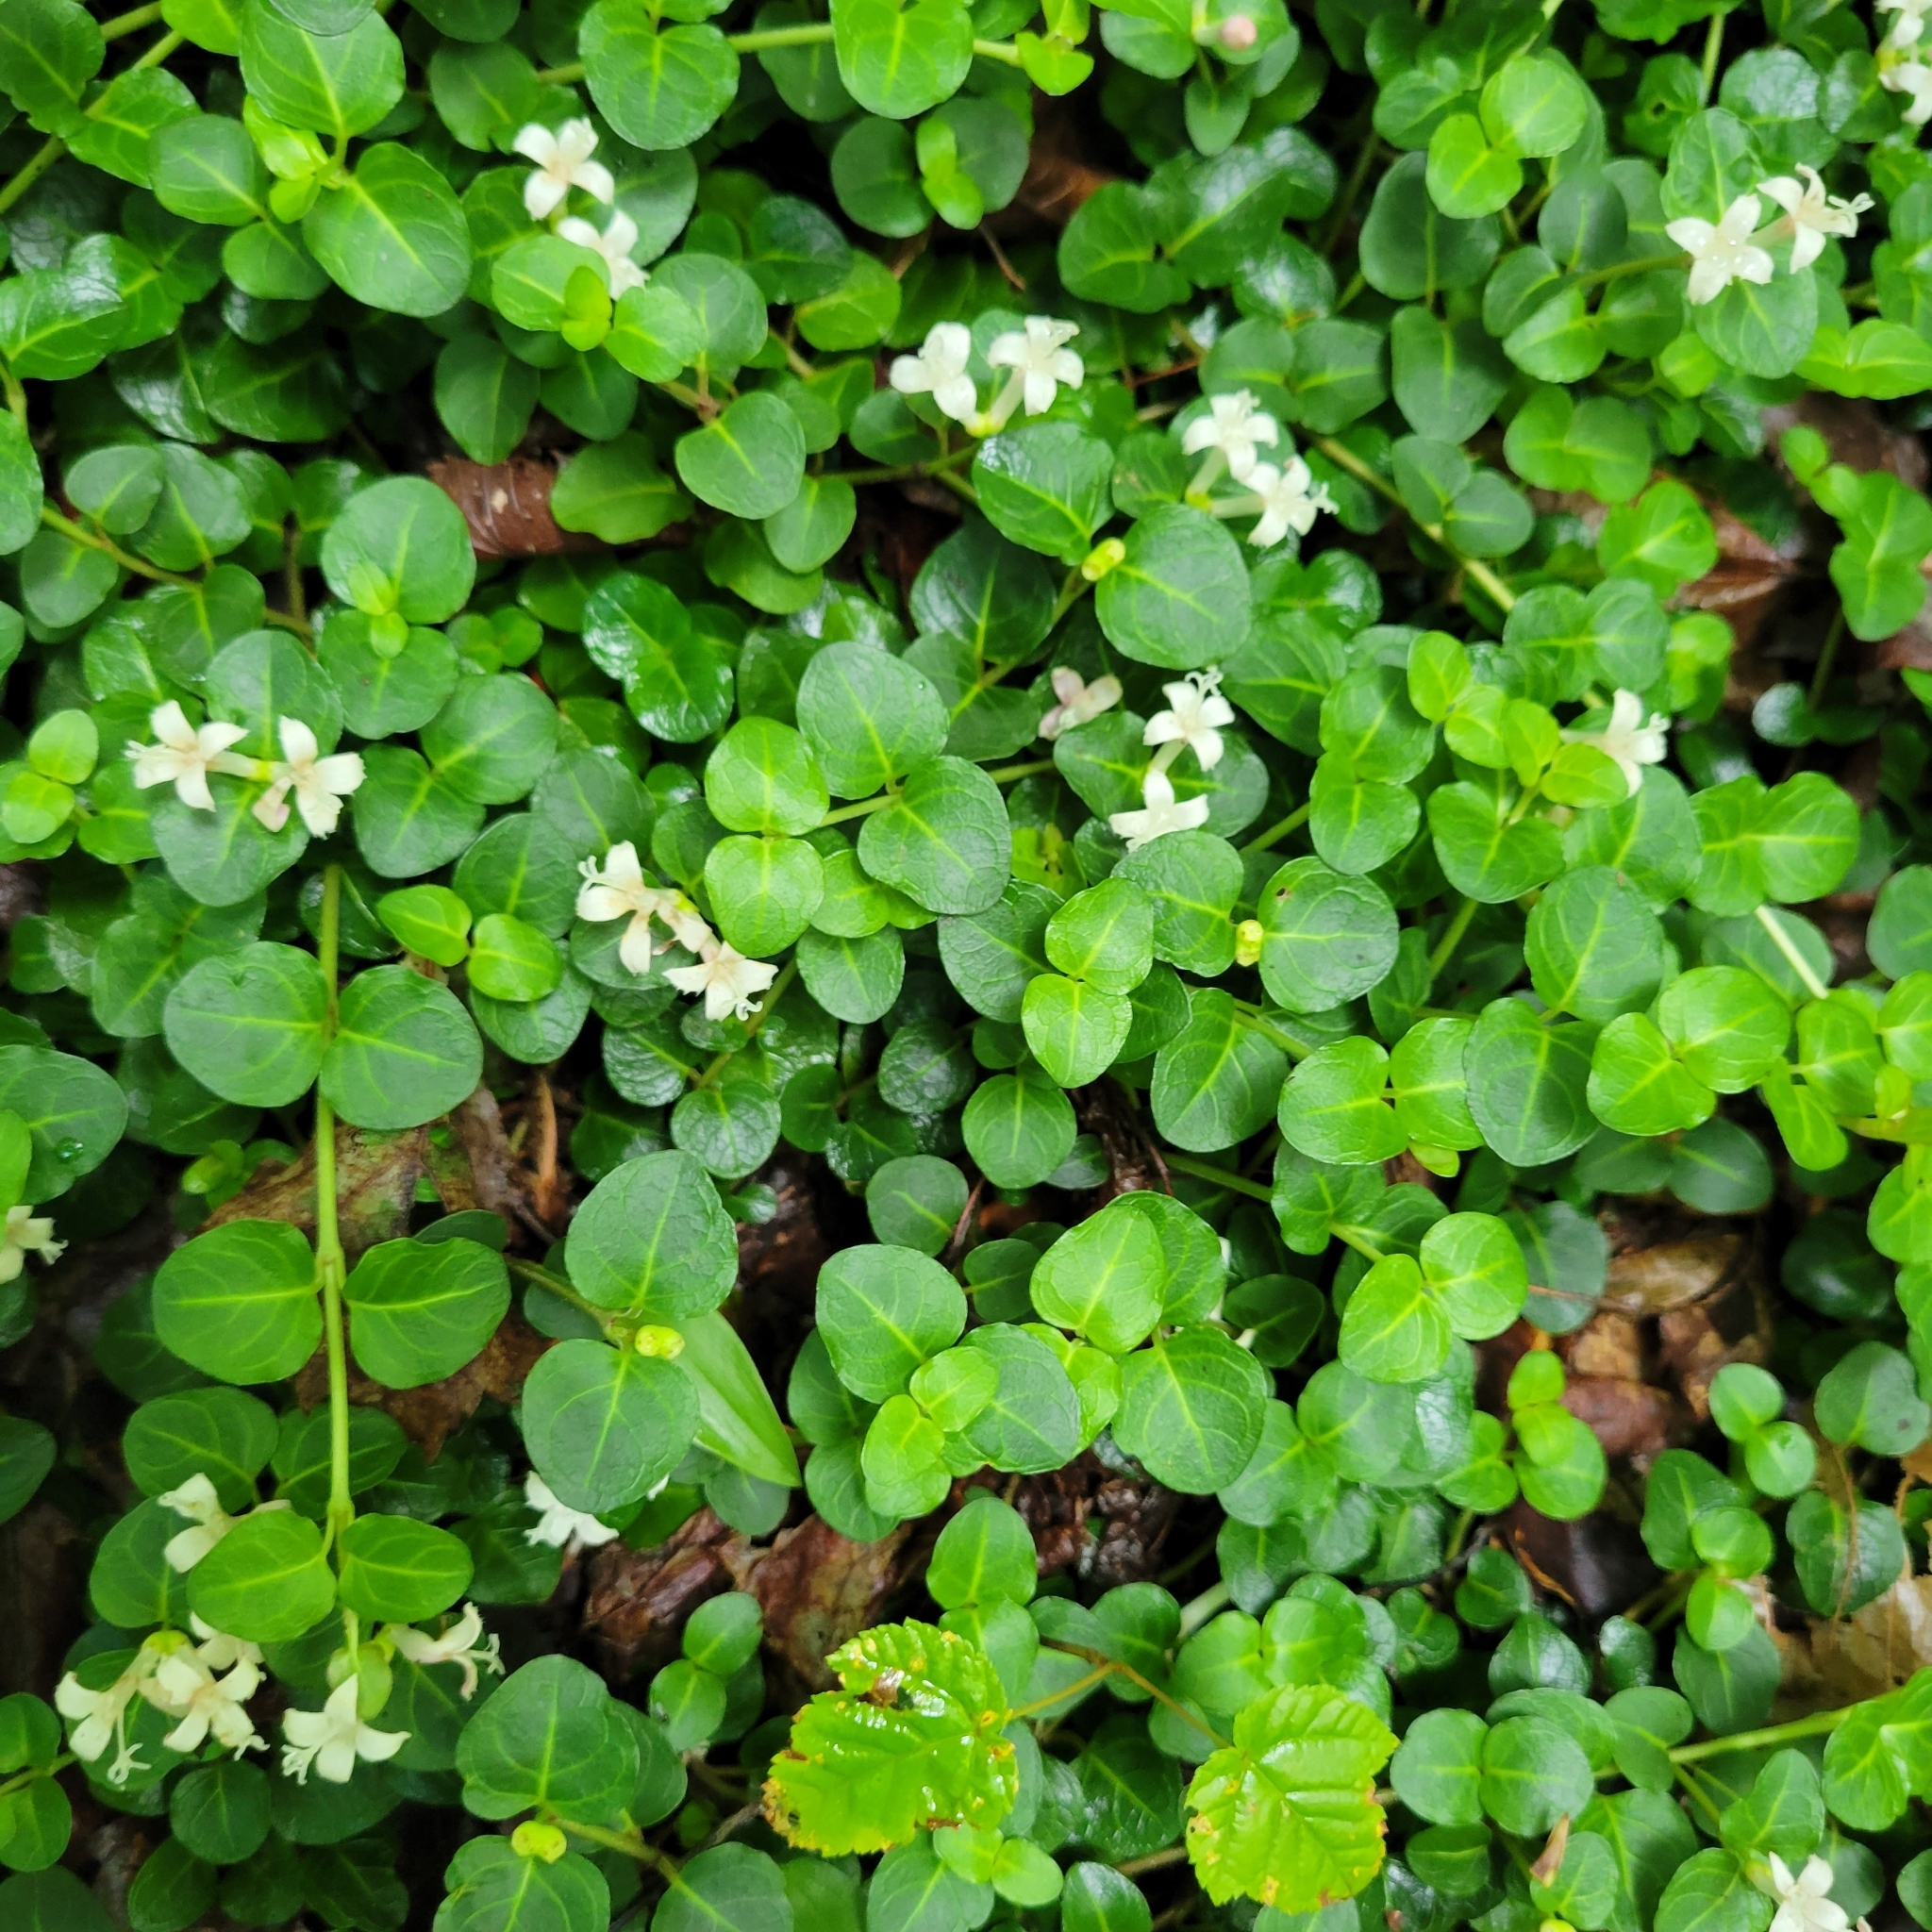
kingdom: Plantae
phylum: Tracheophyta
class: Magnoliopsida
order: Gentianales
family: Rubiaceae
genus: Mitchella
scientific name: Mitchella repens
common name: Partridge-berry
